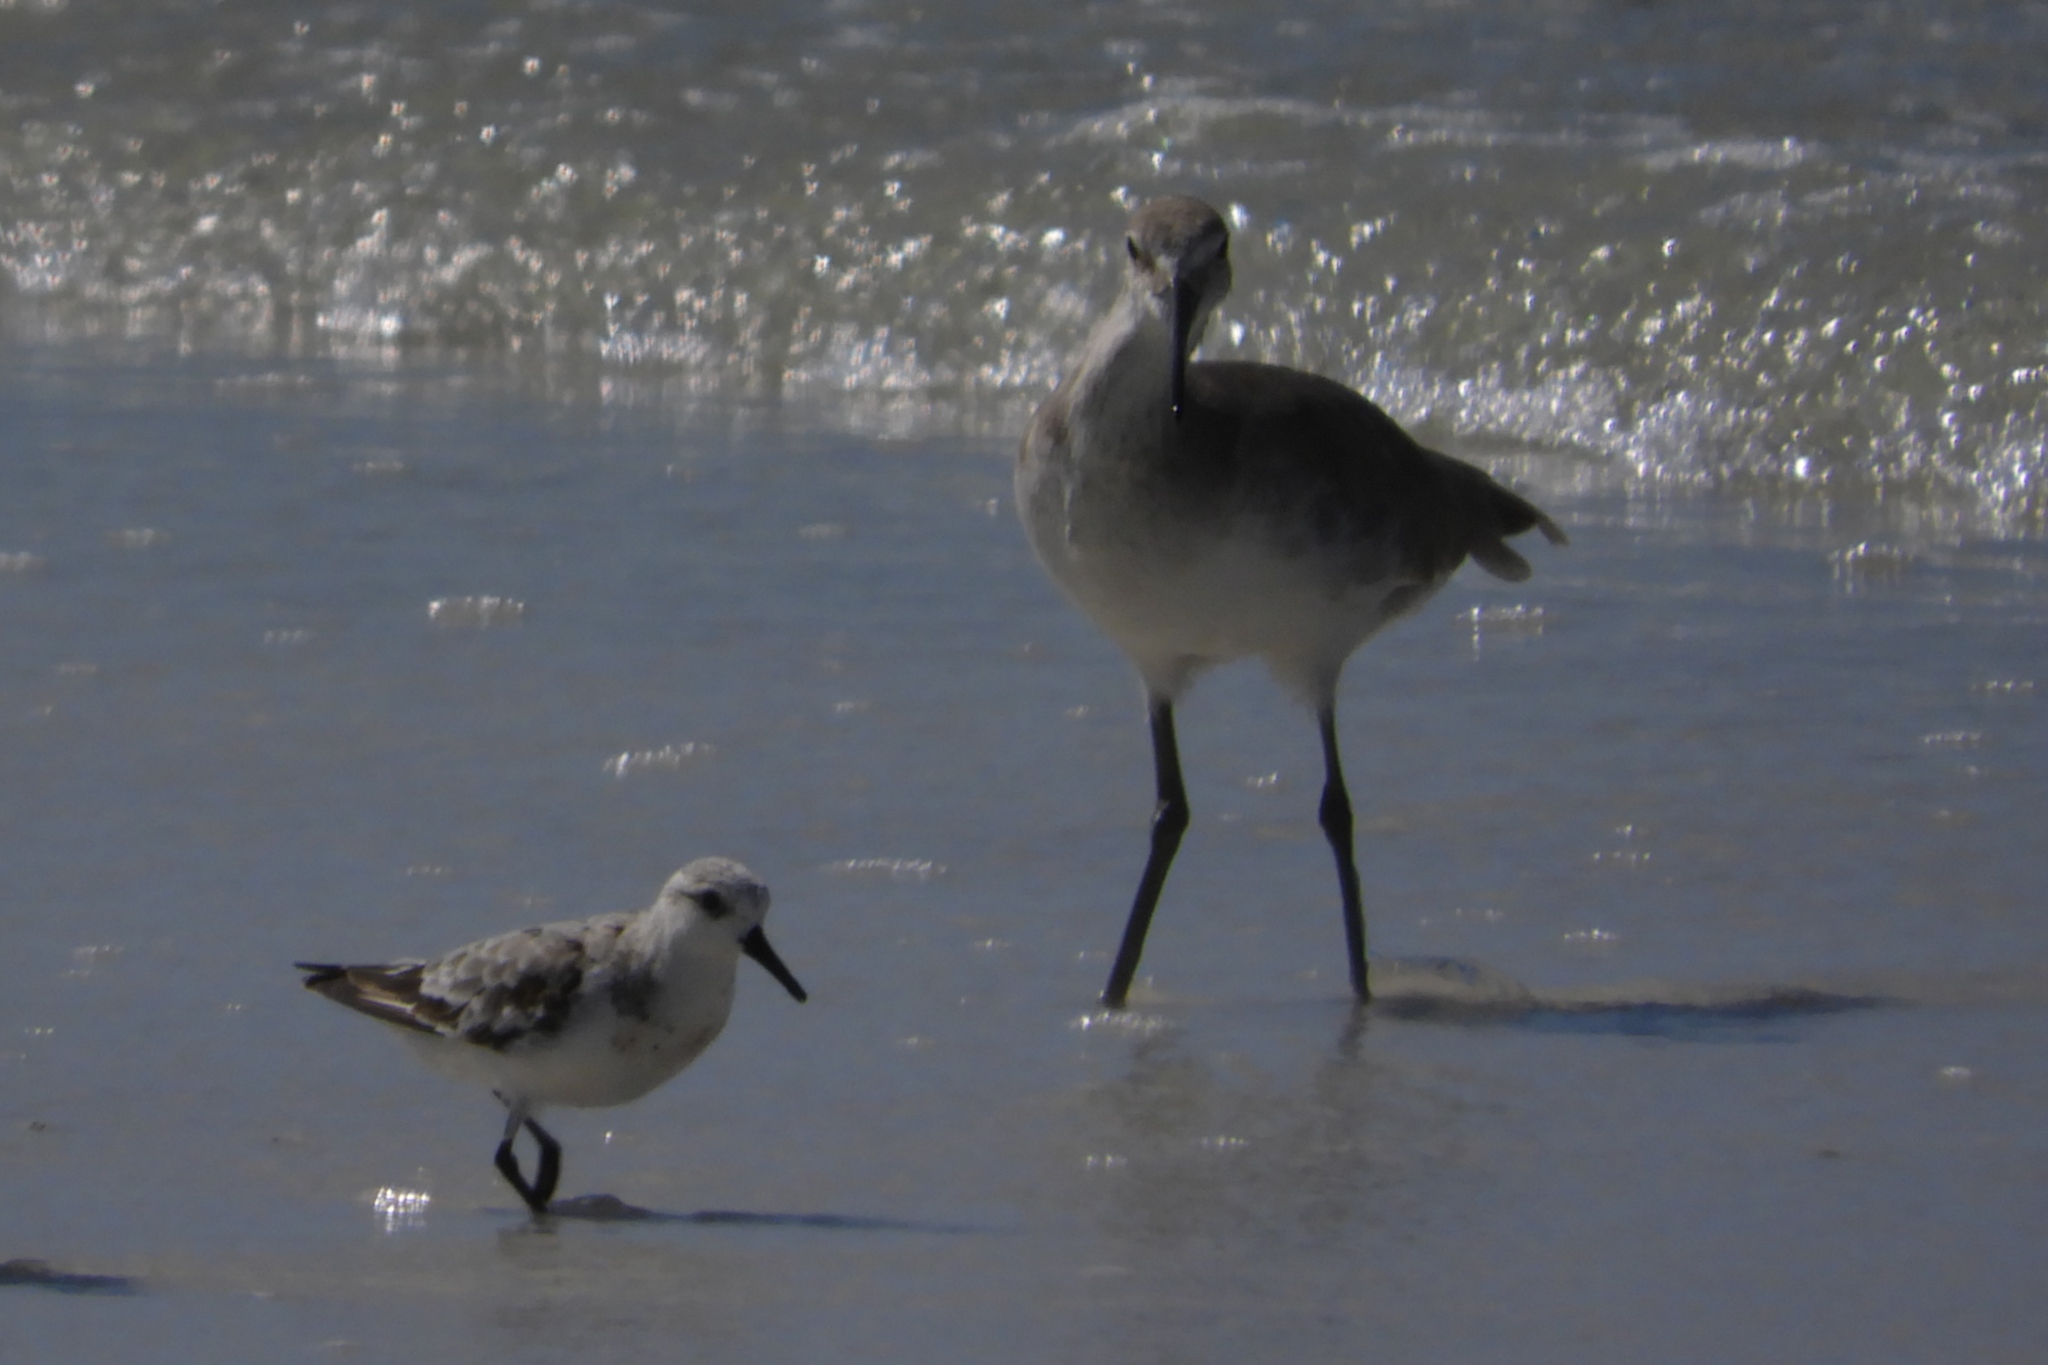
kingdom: Animalia
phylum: Chordata
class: Aves
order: Charadriiformes
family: Scolopacidae
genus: Tringa
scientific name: Tringa semipalmata
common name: Willet
